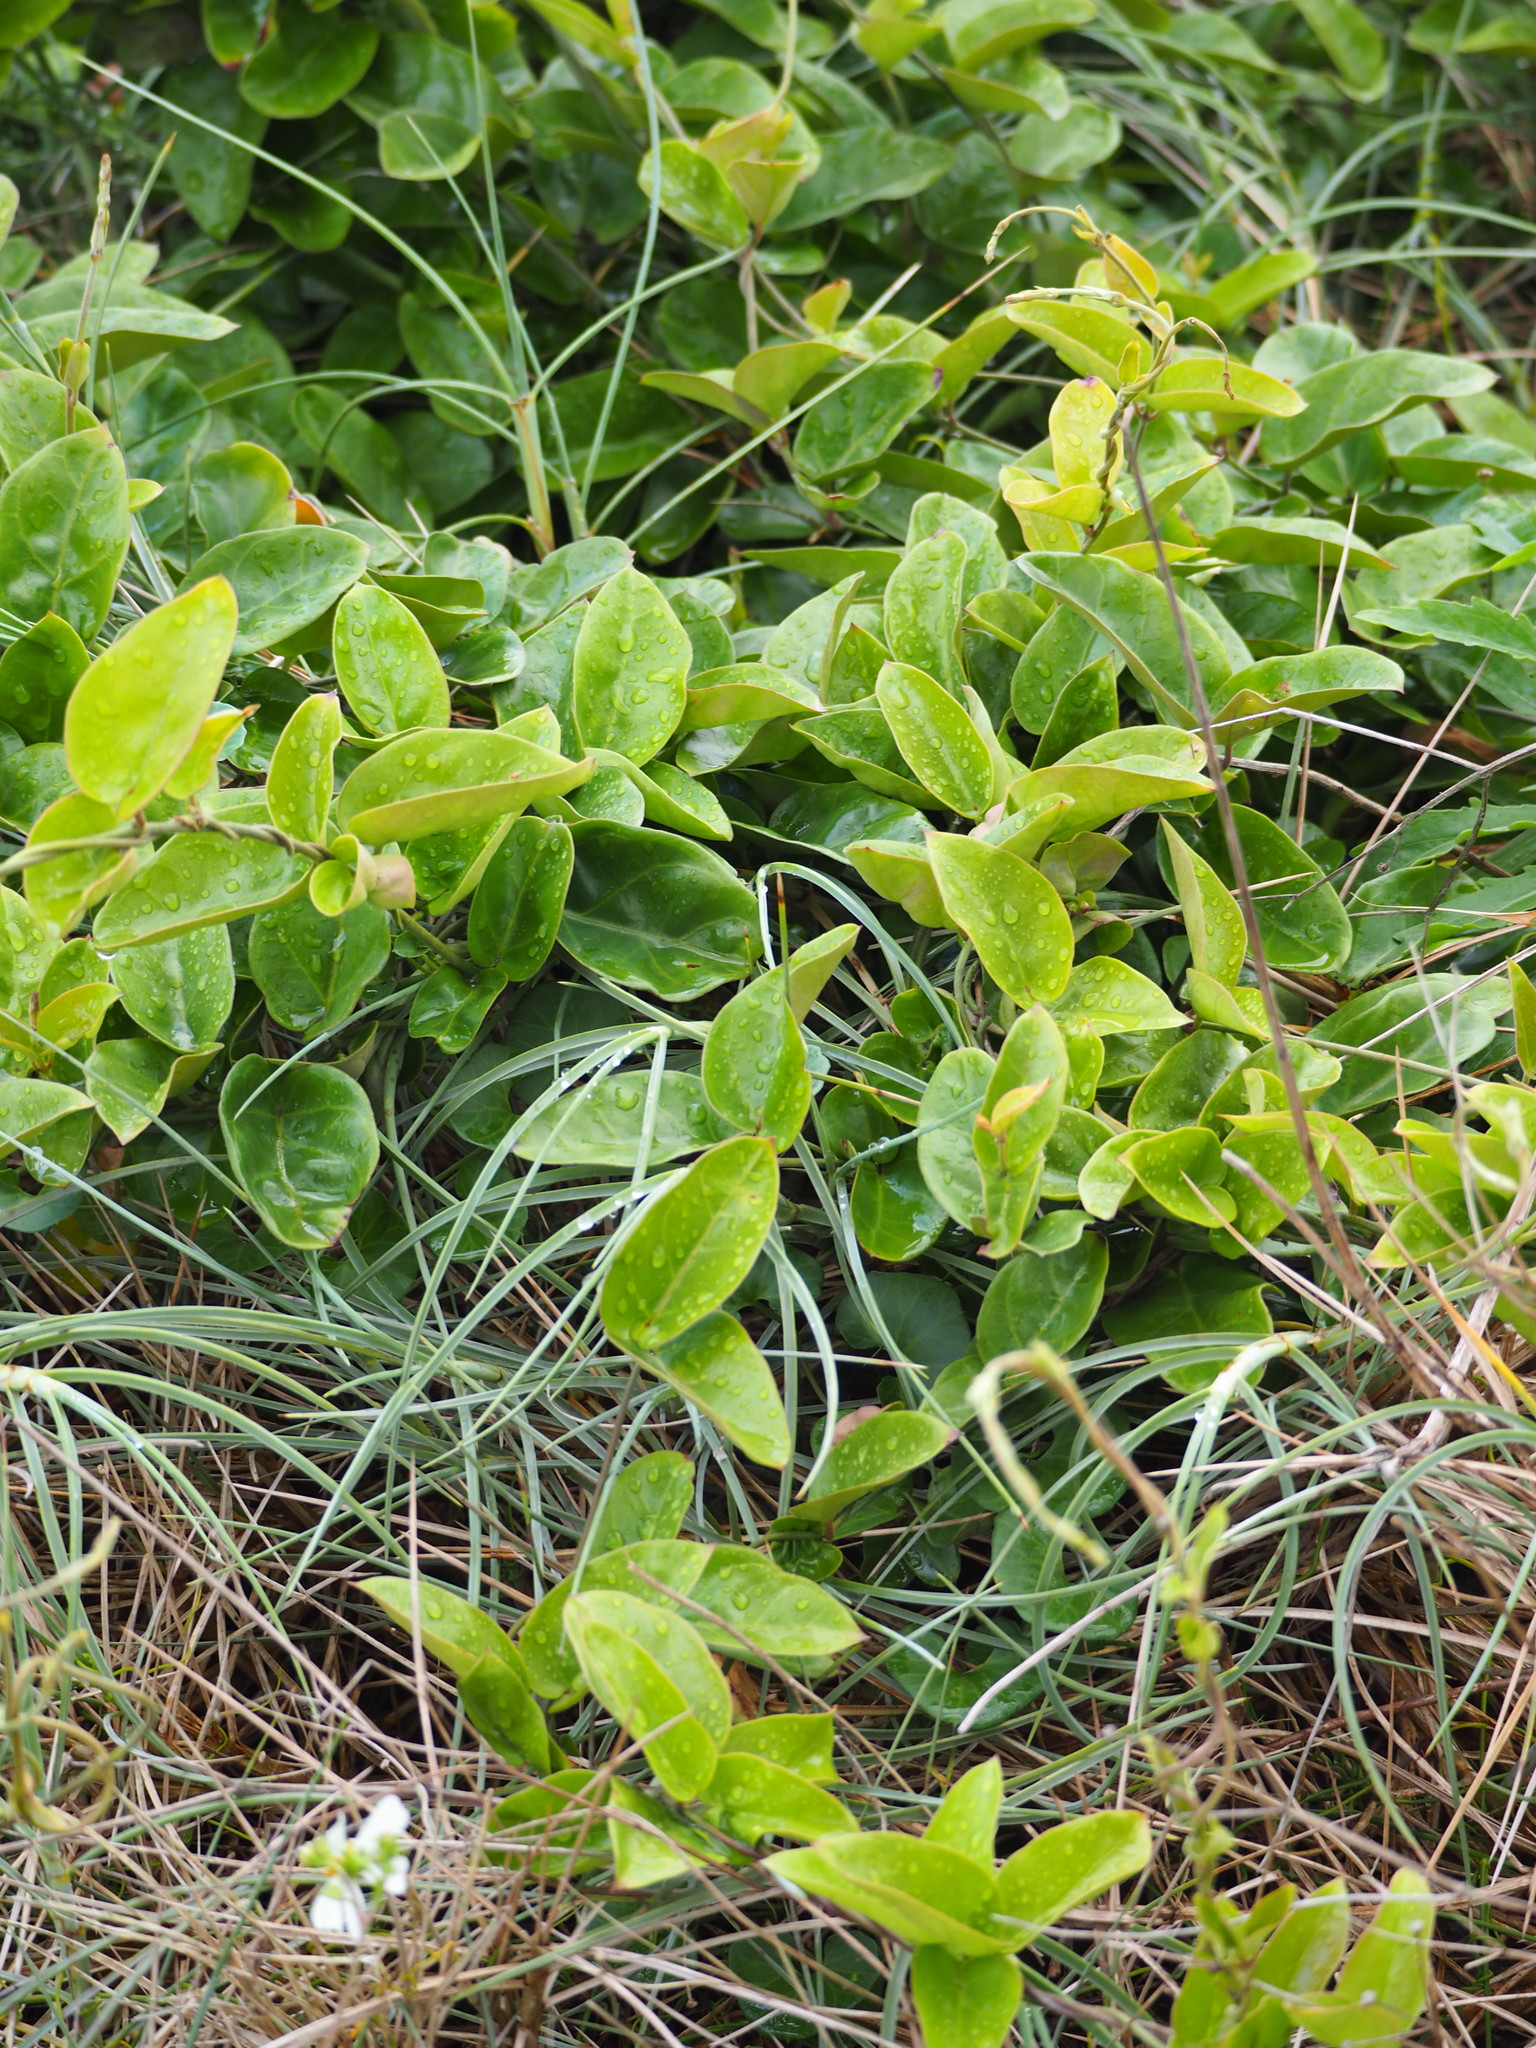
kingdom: Plantae
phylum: Tracheophyta
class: Magnoliopsida
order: Gentianales
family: Apocynaceae
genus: Vincetoxicum
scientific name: Vincetoxicum hirsutum
